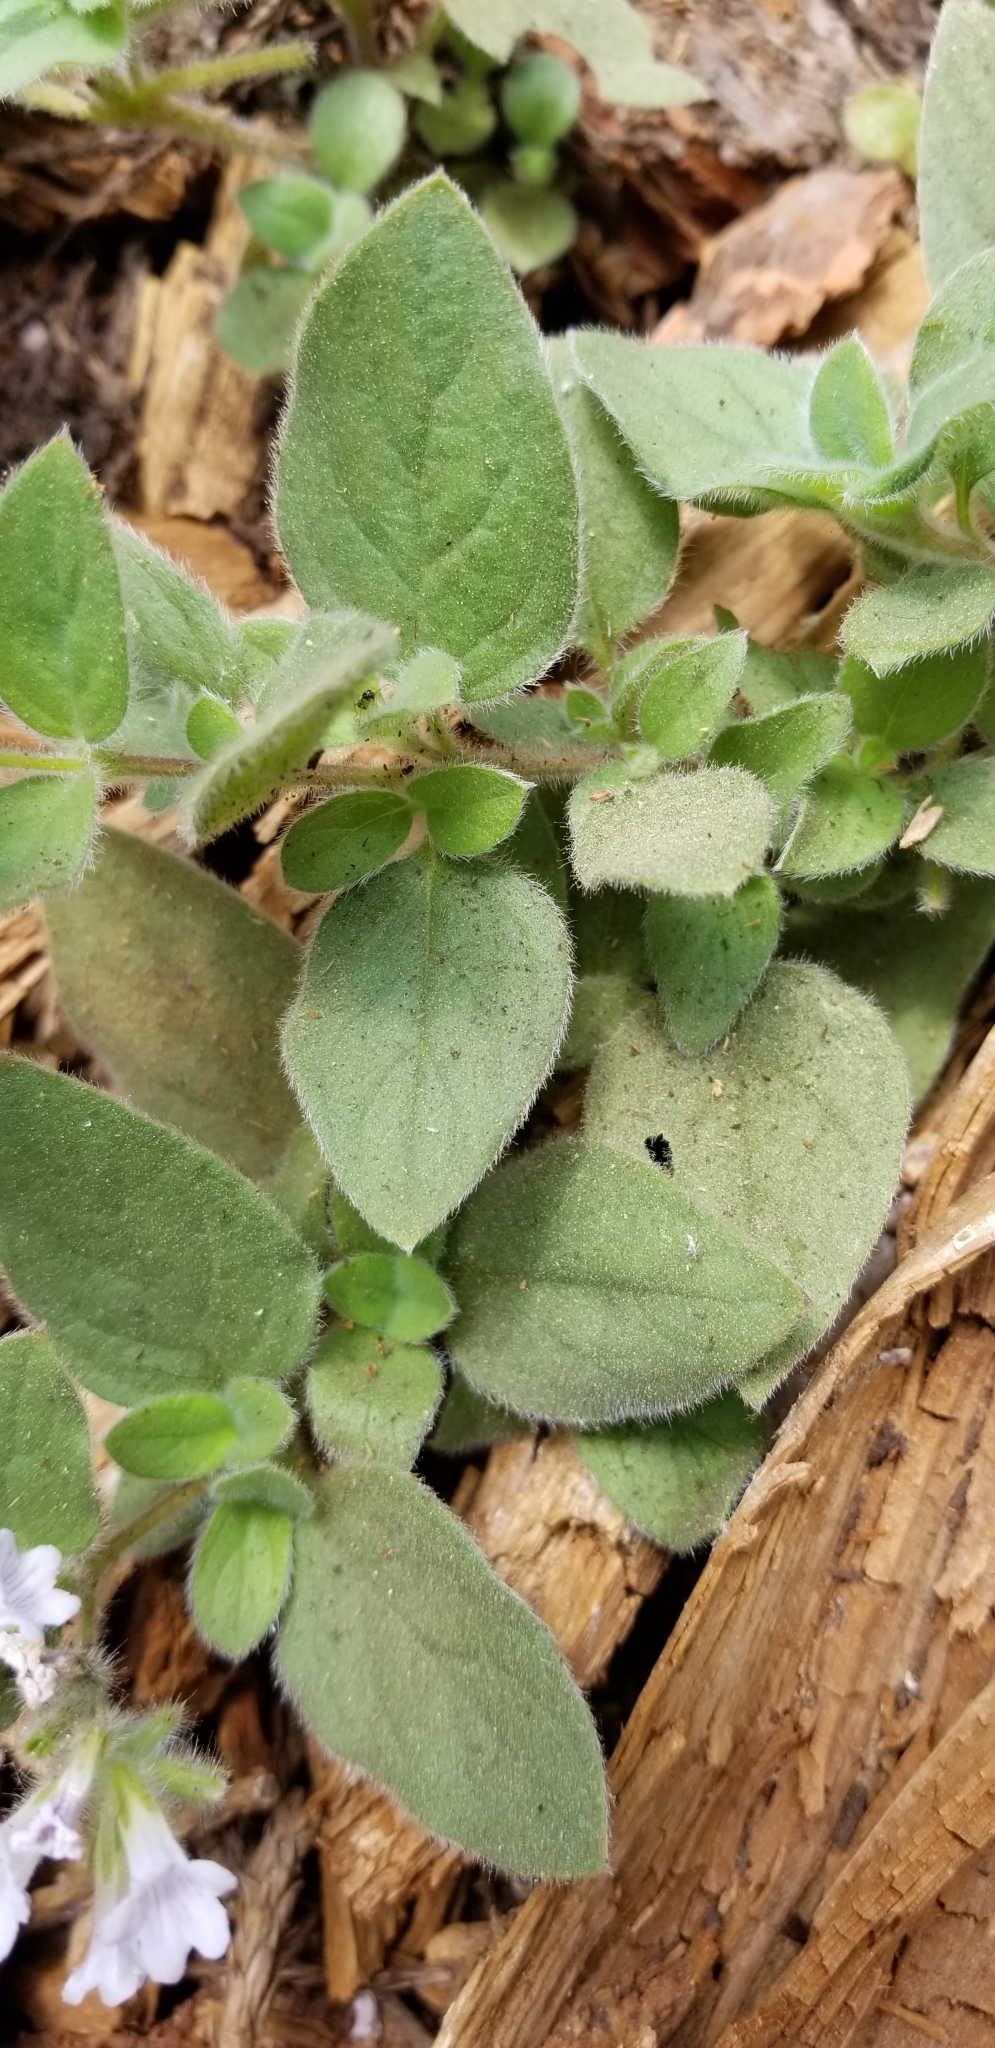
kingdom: Plantae
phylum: Tracheophyta
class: Magnoliopsida
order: Boraginales
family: Hydrophyllaceae
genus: Draperia
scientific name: Draperia systyla
